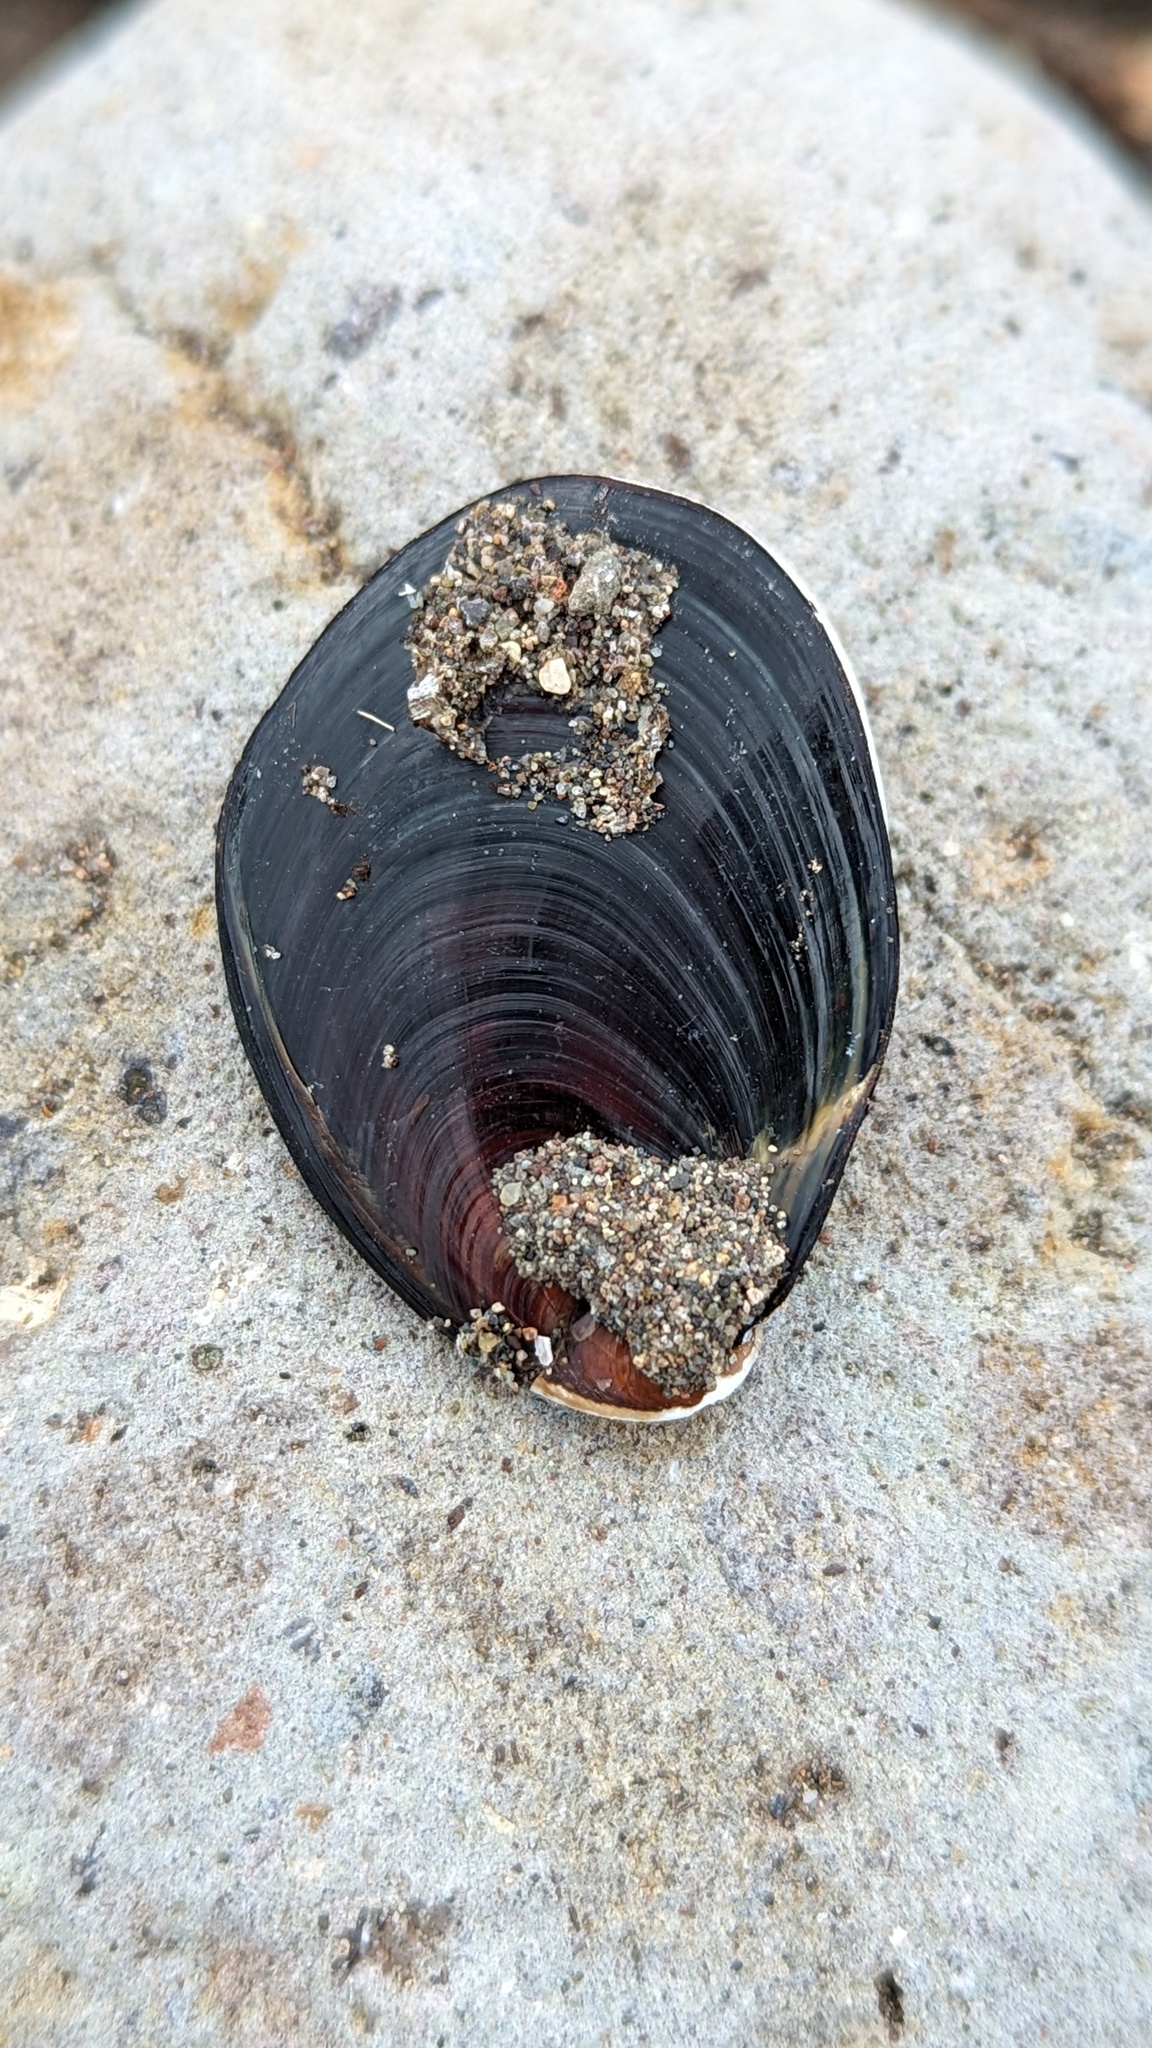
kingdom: Animalia
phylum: Mollusca
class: Gastropoda
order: Trochida
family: Turbinidae
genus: Megastraea
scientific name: Megastraea undosa
